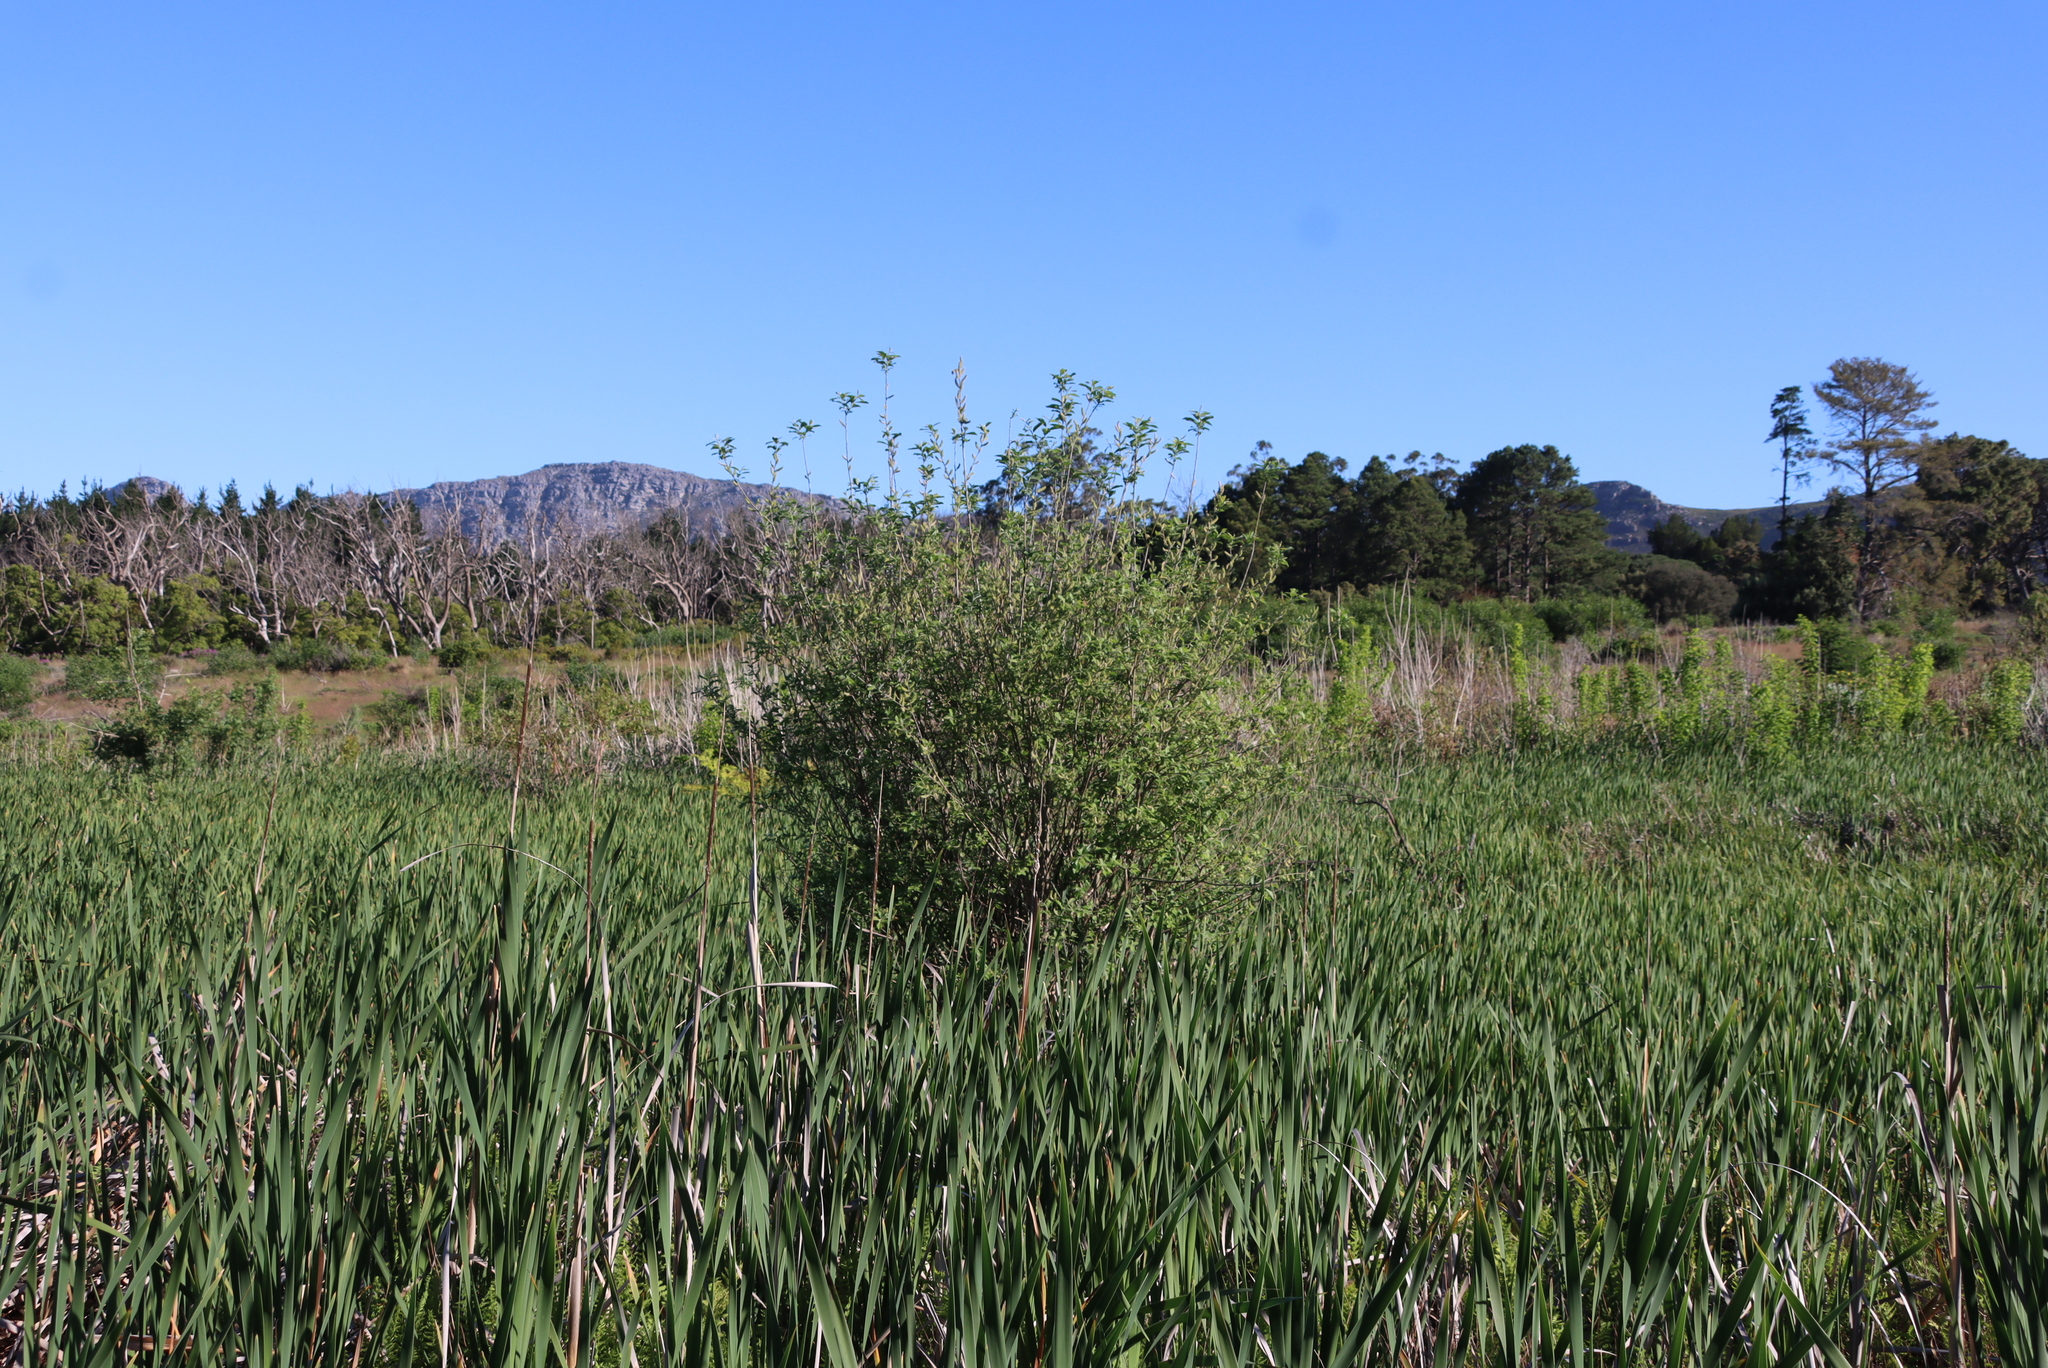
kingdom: Plantae
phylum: Tracheophyta
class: Liliopsida
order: Poales
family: Typhaceae
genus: Typha
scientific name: Typha capensis
